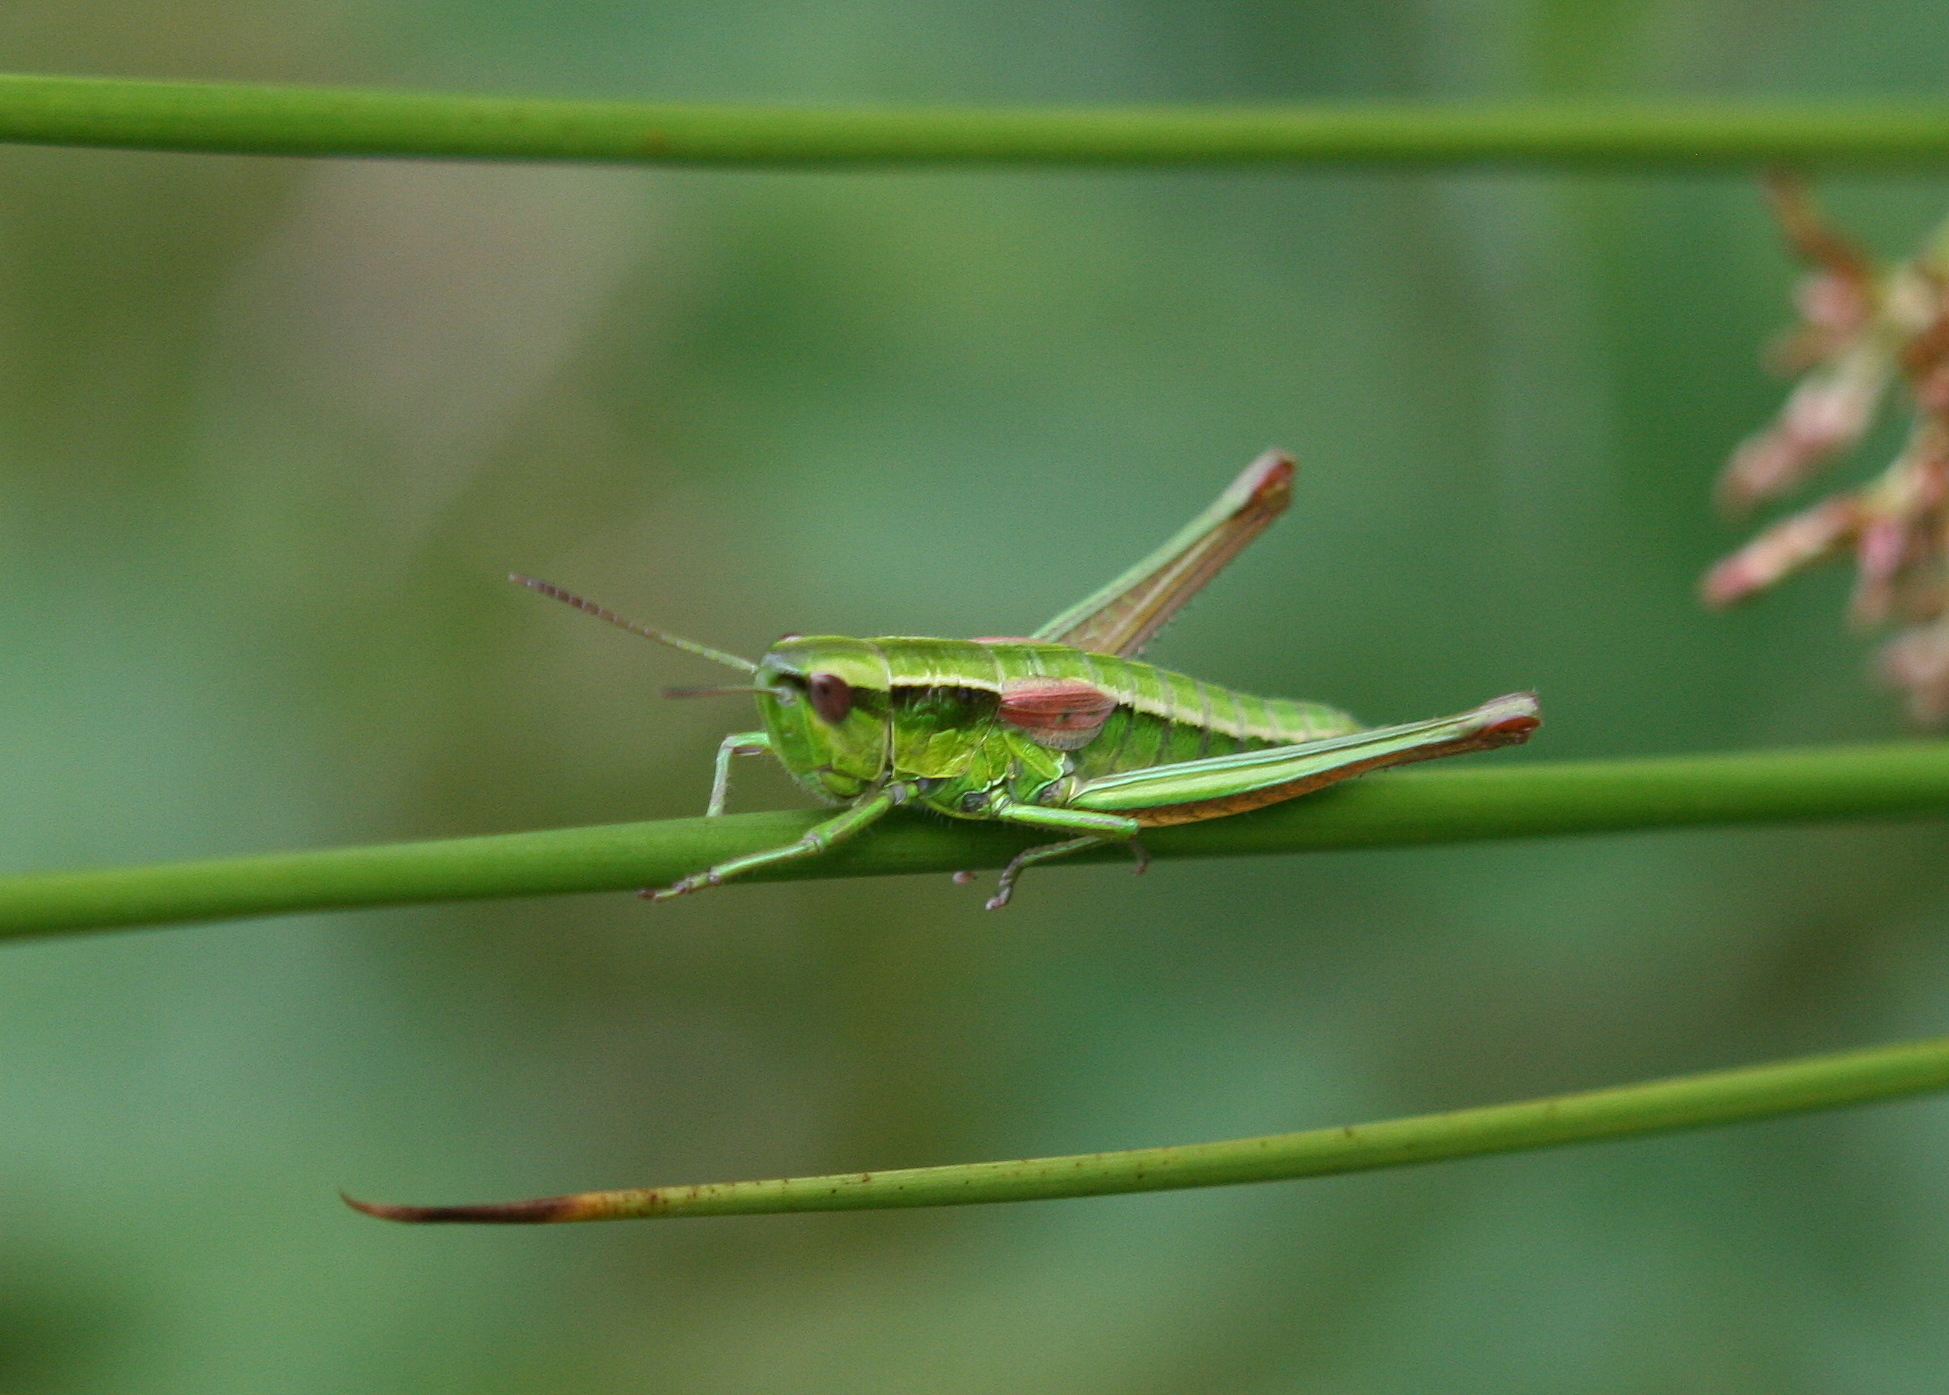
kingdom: Animalia
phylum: Arthropoda
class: Insecta
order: Orthoptera
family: Acrididae
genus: Euthystira
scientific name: Euthystira brachyptera
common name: Small gold grasshopper
